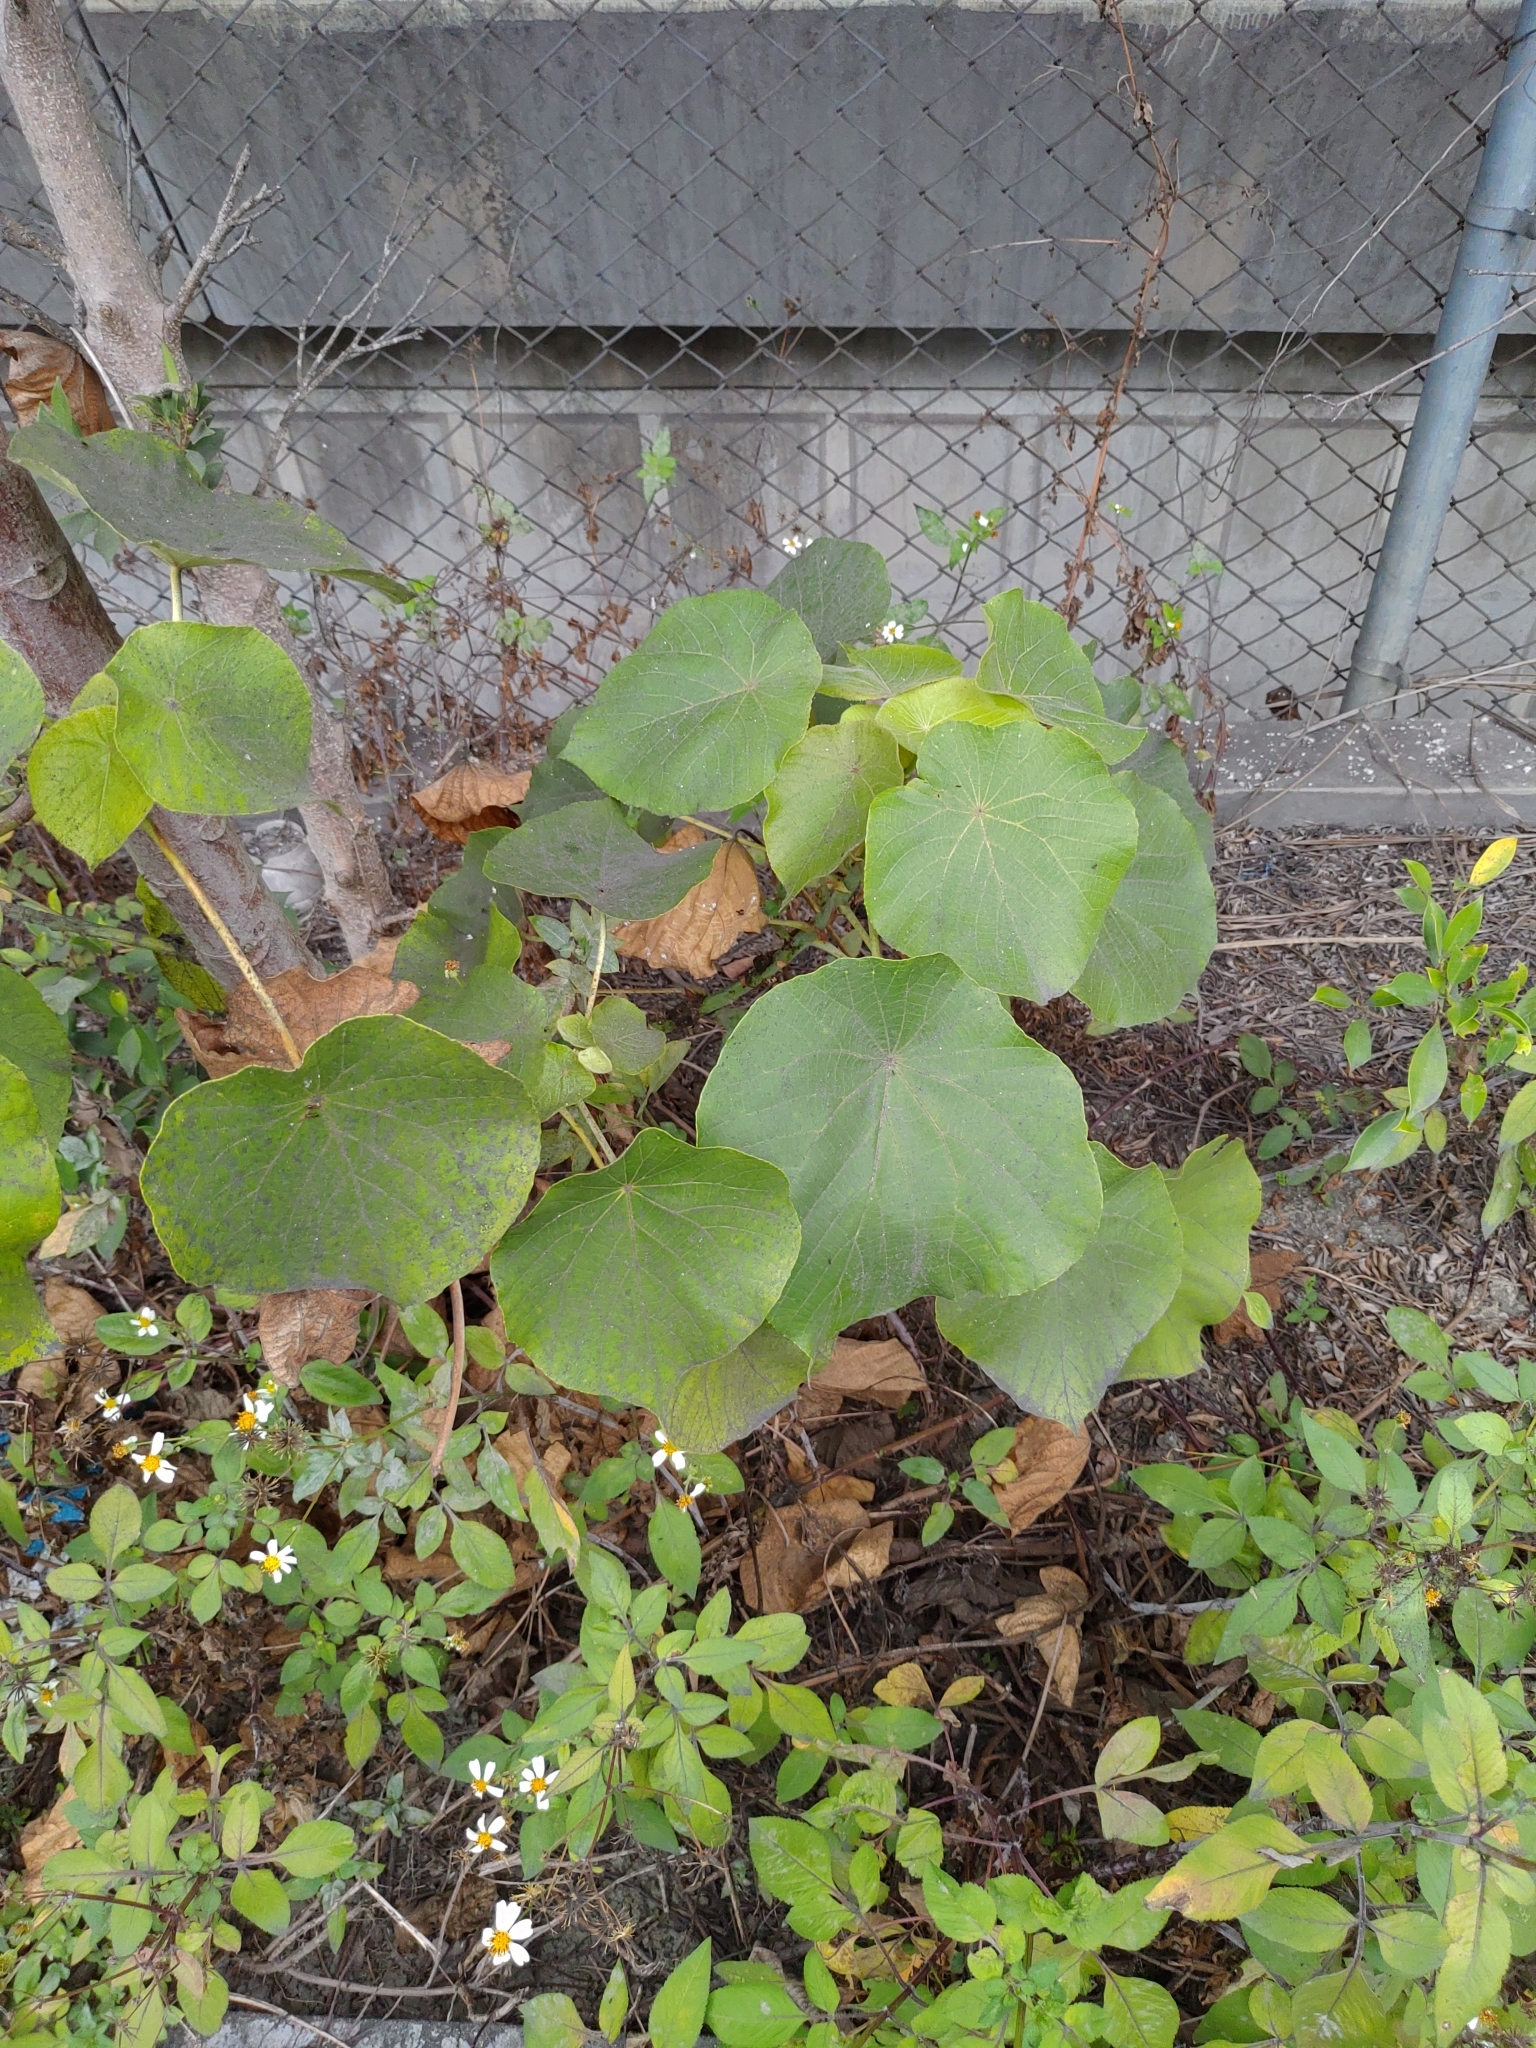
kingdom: Plantae
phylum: Tracheophyta
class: Magnoliopsida
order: Malpighiales
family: Euphorbiaceae
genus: Macaranga
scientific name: Macaranga tanarius
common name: Parasol leaf tree
